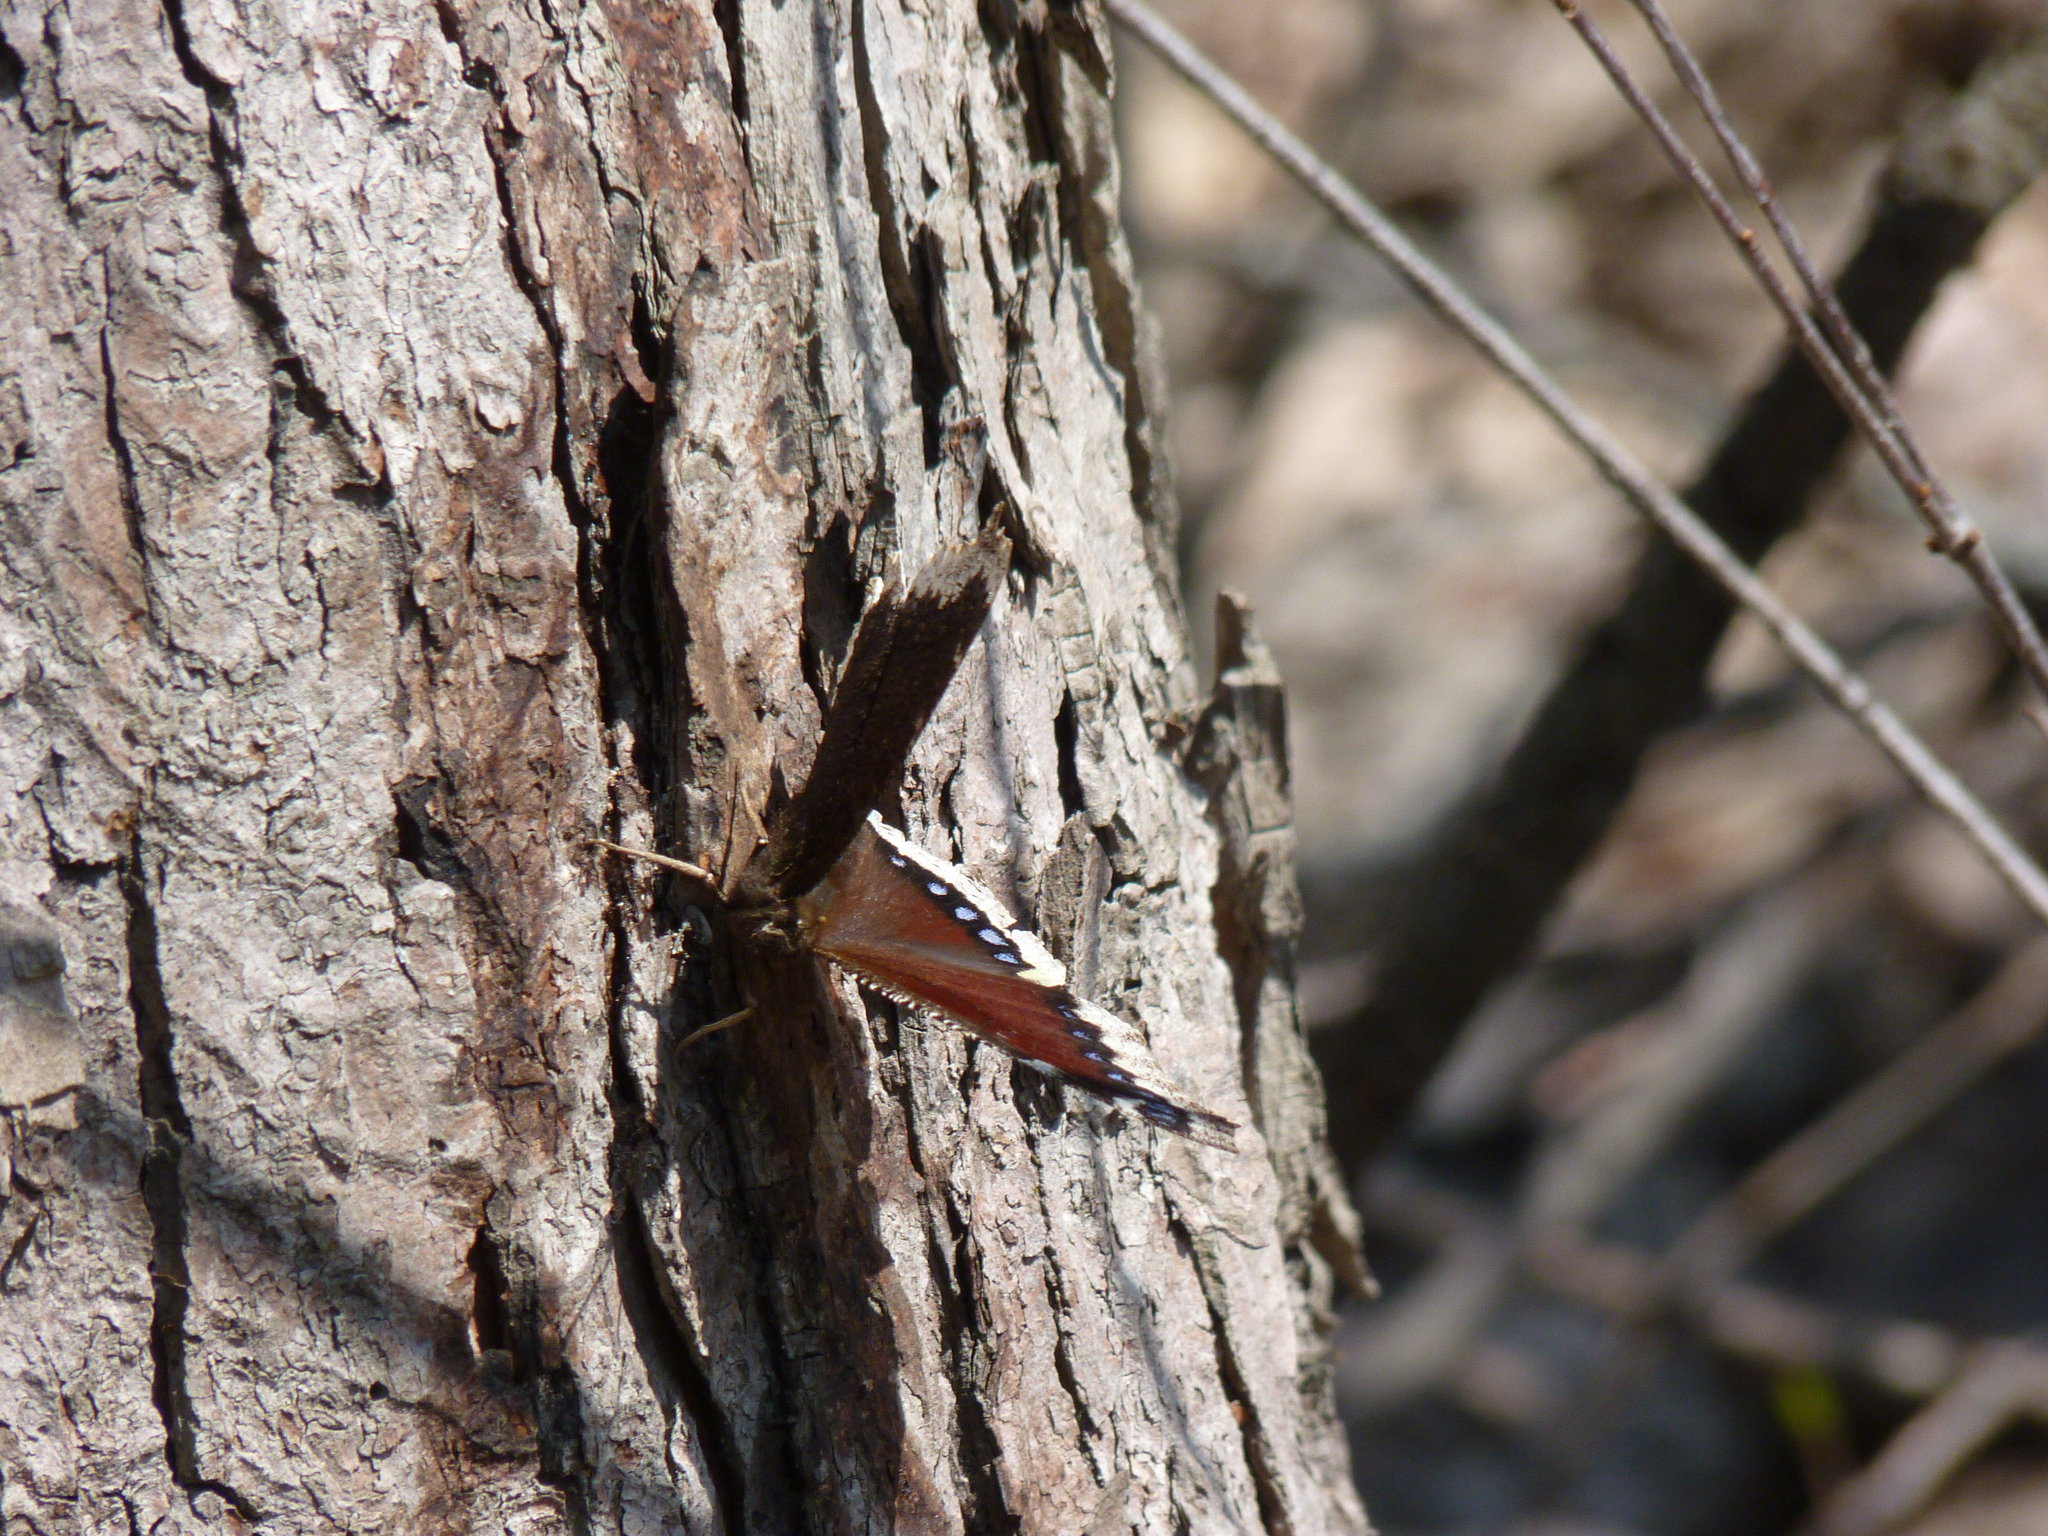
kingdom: Animalia
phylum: Arthropoda
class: Insecta
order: Lepidoptera
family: Nymphalidae
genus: Nymphalis
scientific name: Nymphalis antiopa
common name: Camberwell beauty
